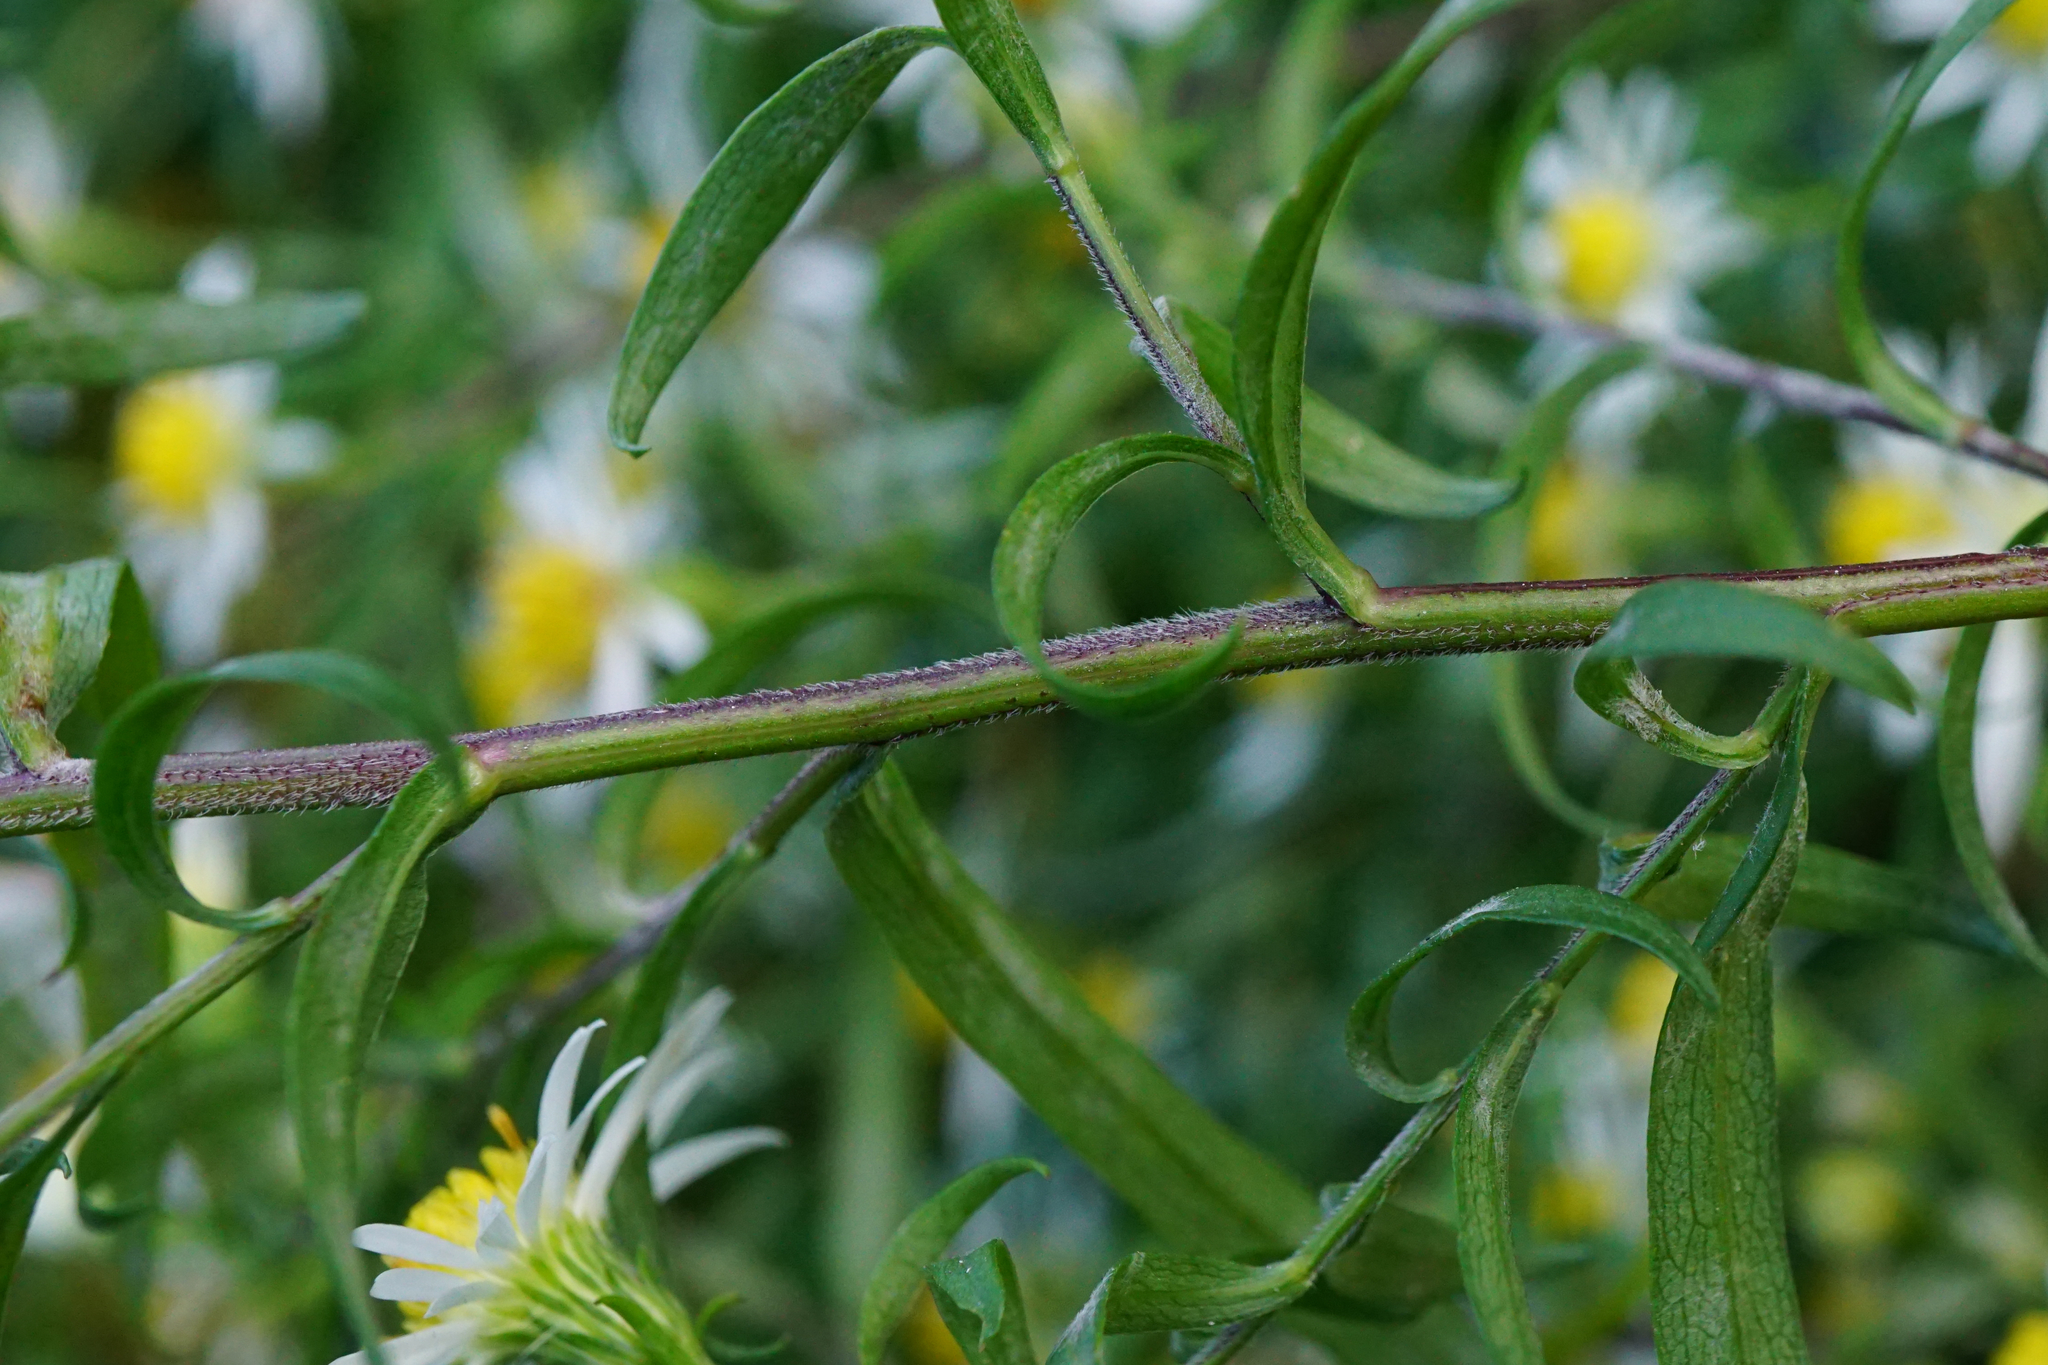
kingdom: Plantae
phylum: Tracheophyta
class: Magnoliopsida
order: Asterales
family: Asteraceae
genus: Symphyotrichum
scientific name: Symphyotrichum lanceolatum
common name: Panicled aster
